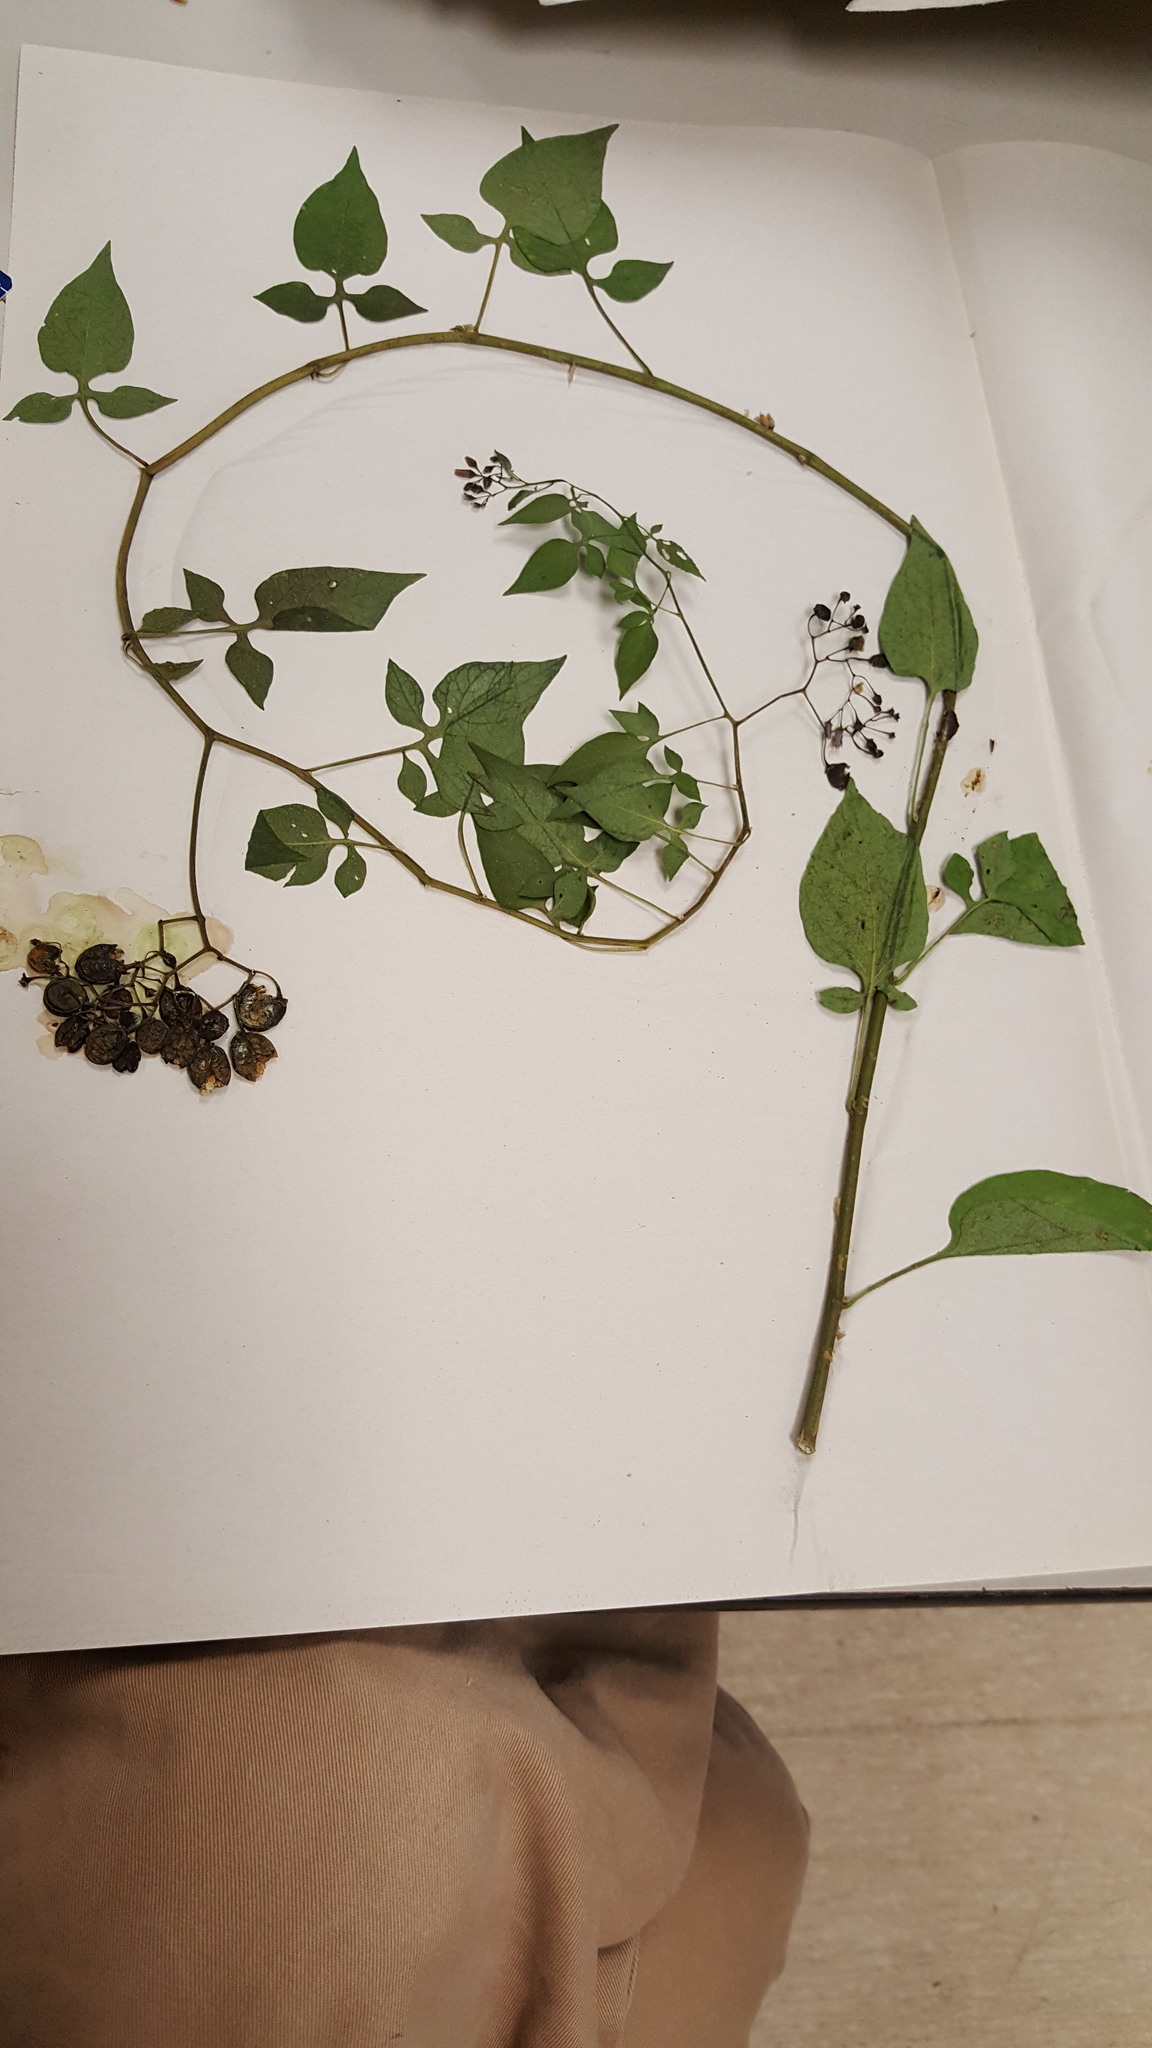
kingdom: Plantae
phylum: Tracheophyta
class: Magnoliopsida
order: Solanales
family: Solanaceae
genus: Solanum
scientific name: Solanum dulcamara
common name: Climbing nightshade
